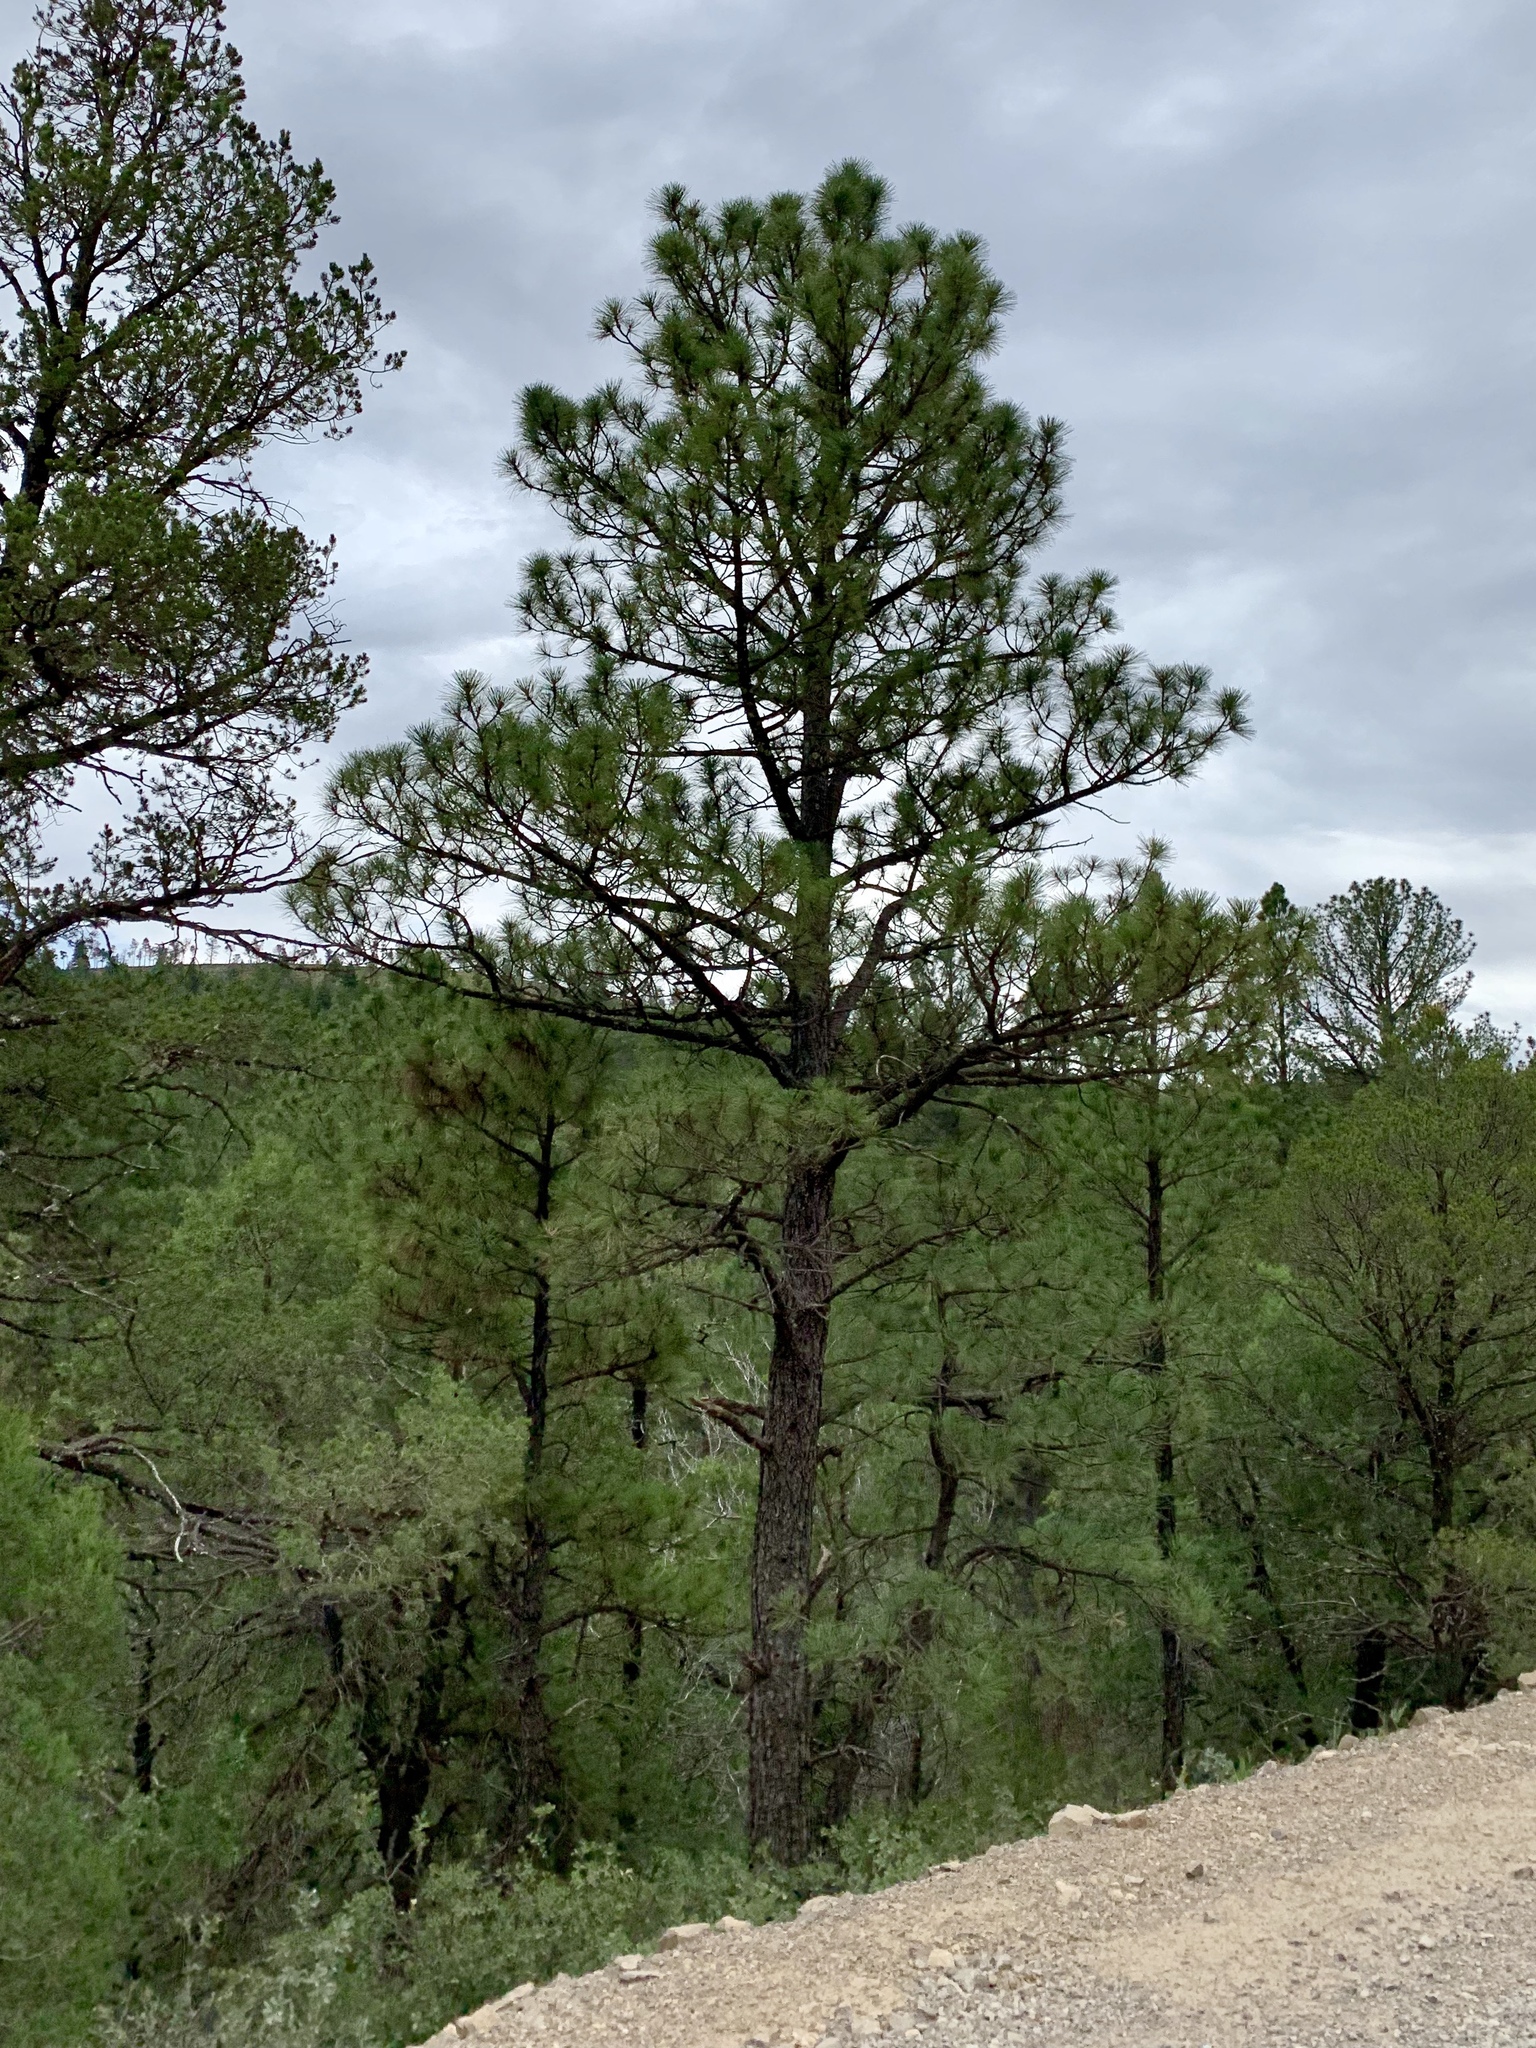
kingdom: Plantae
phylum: Tracheophyta
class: Pinopsida
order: Pinales
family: Pinaceae
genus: Pinus
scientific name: Pinus ponderosa
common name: Western yellow-pine
